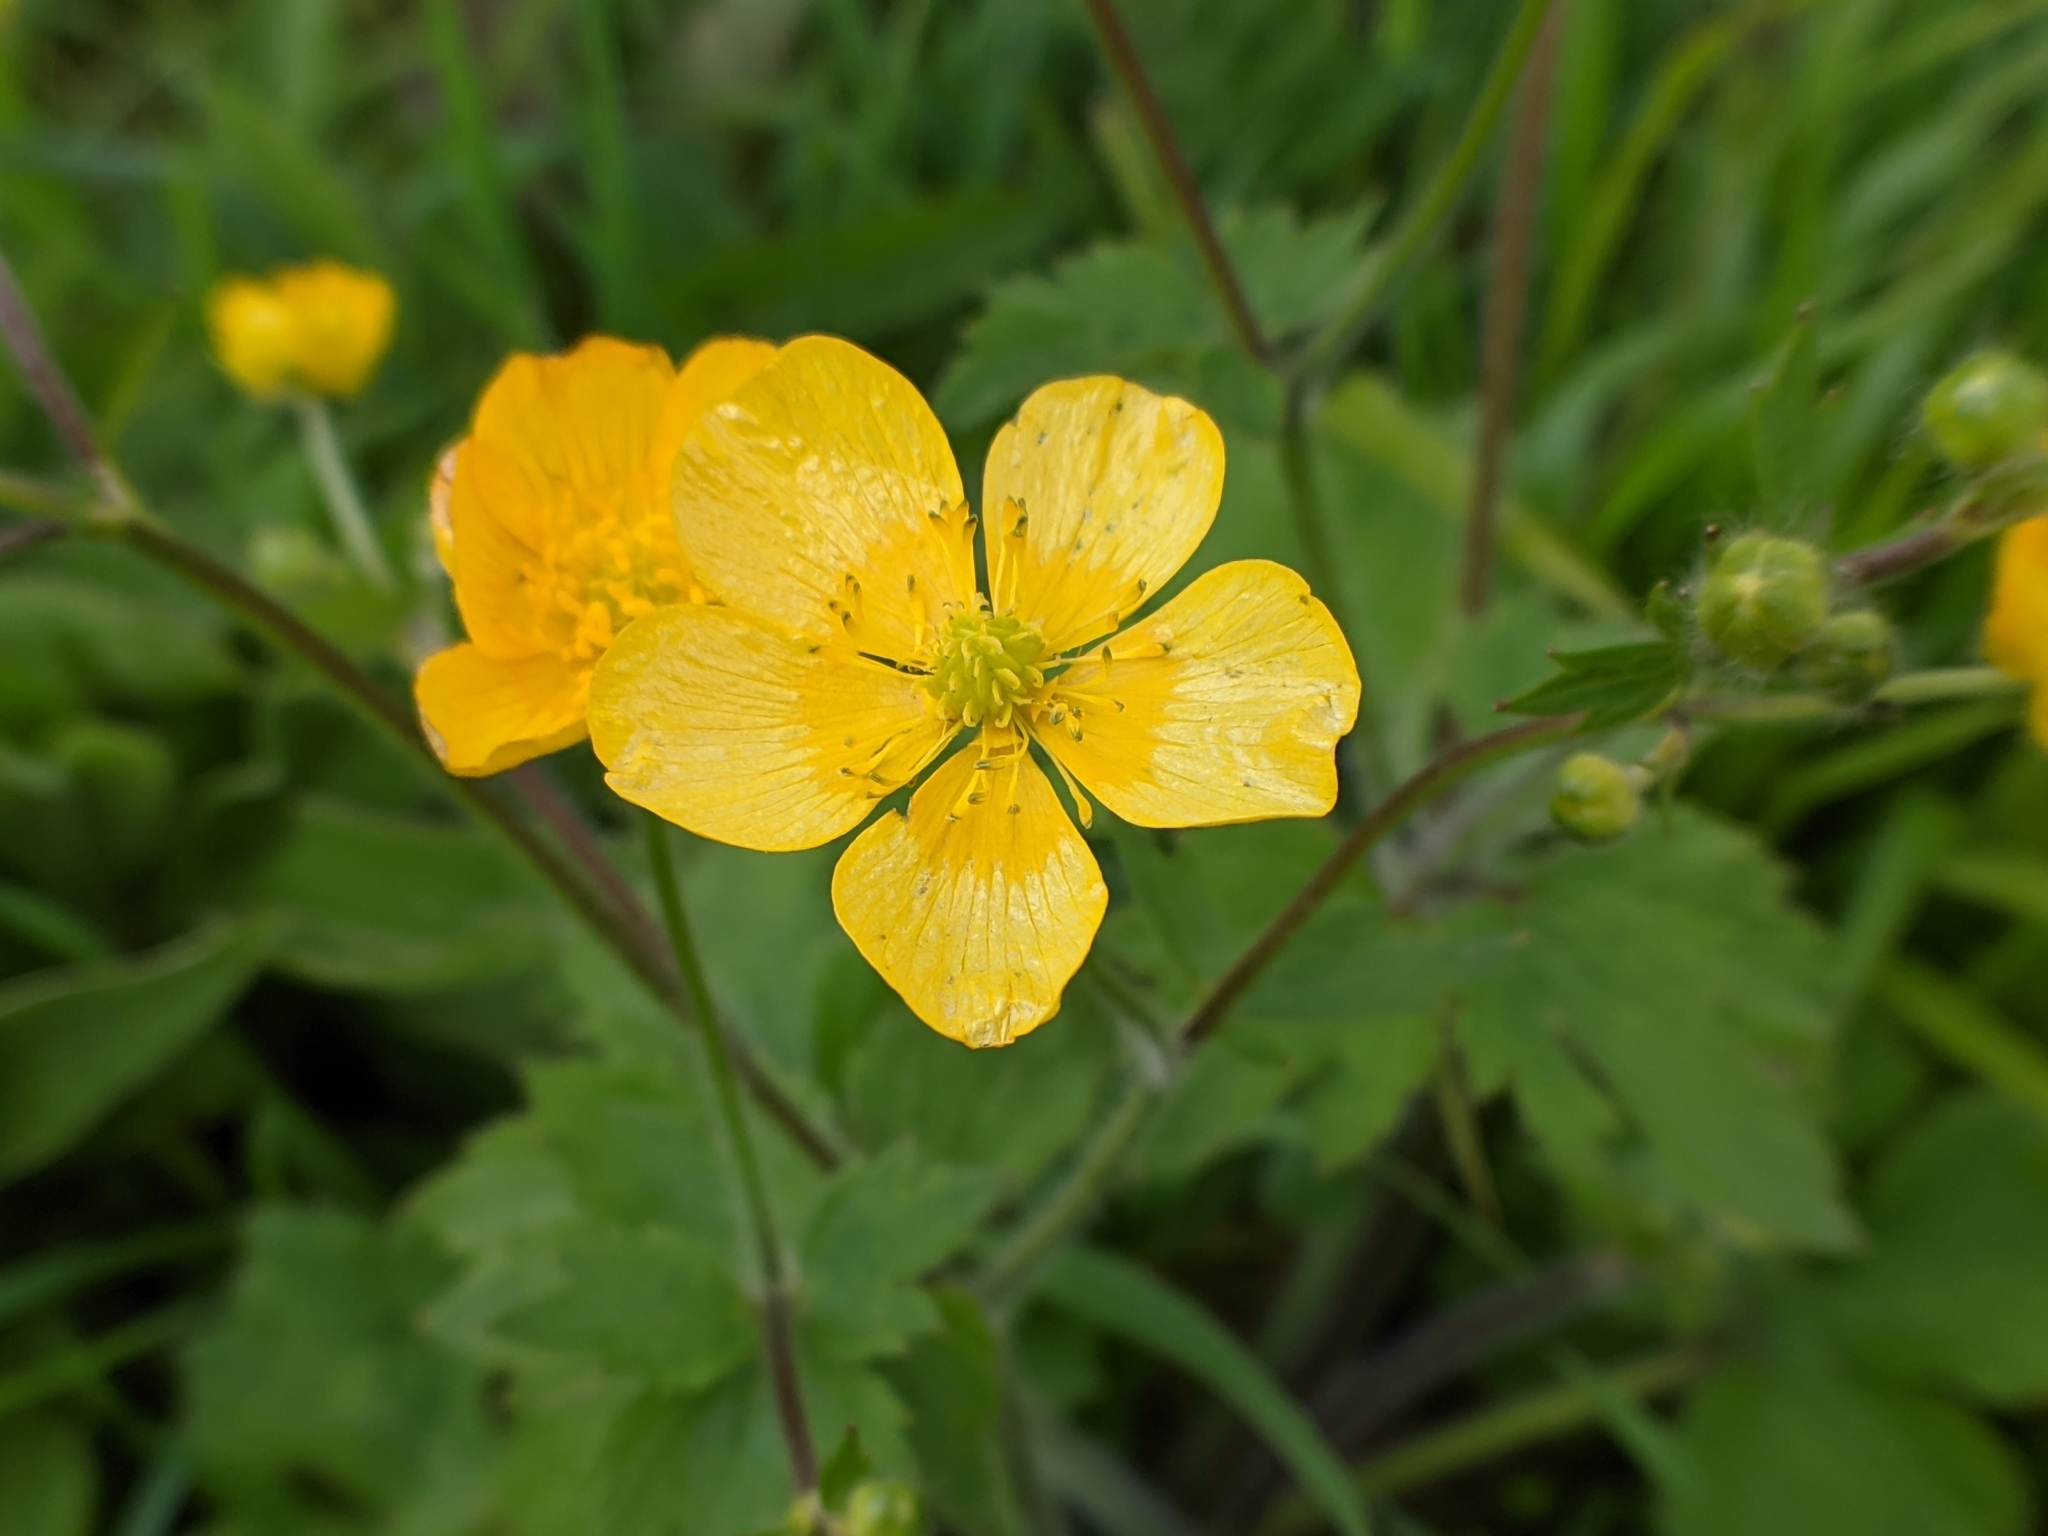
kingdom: Plantae
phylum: Tracheophyta
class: Magnoliopsida
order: Ranunculales
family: Ranunculaceae
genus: Ranunculus
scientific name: Ranunculus lanuginosus
